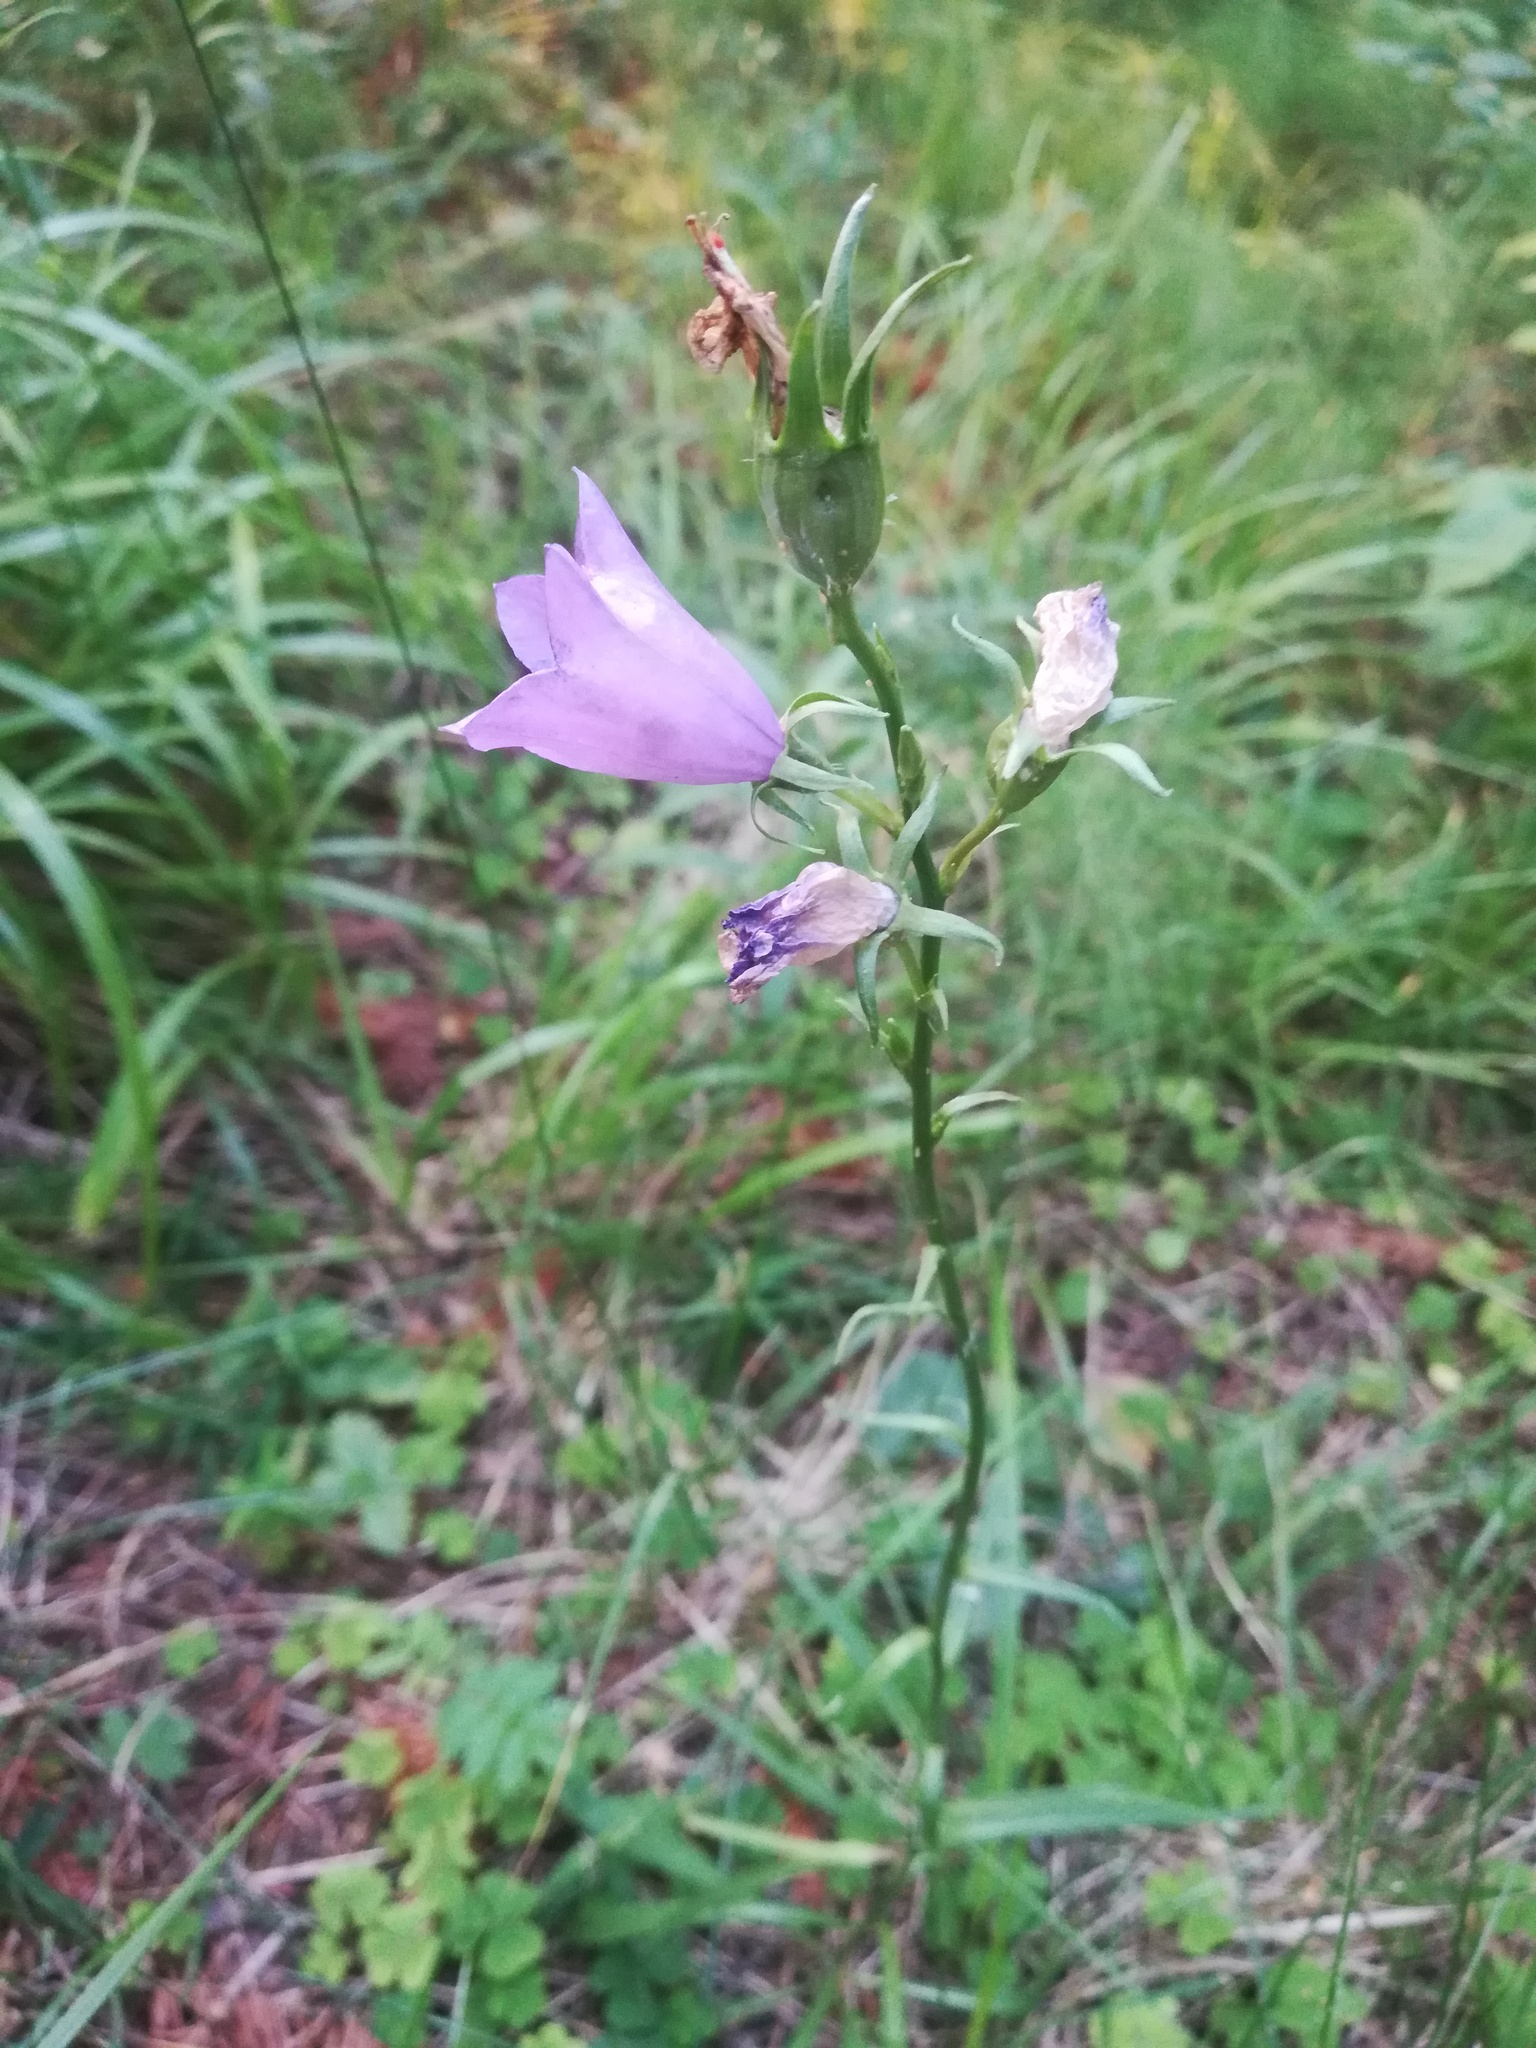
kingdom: Plantae
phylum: Tracheophyta
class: Magnoliopsida
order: Asterales
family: Campanulaceae
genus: Campanula
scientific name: Campanula persicifolia
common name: Peach-leaved bellflower
